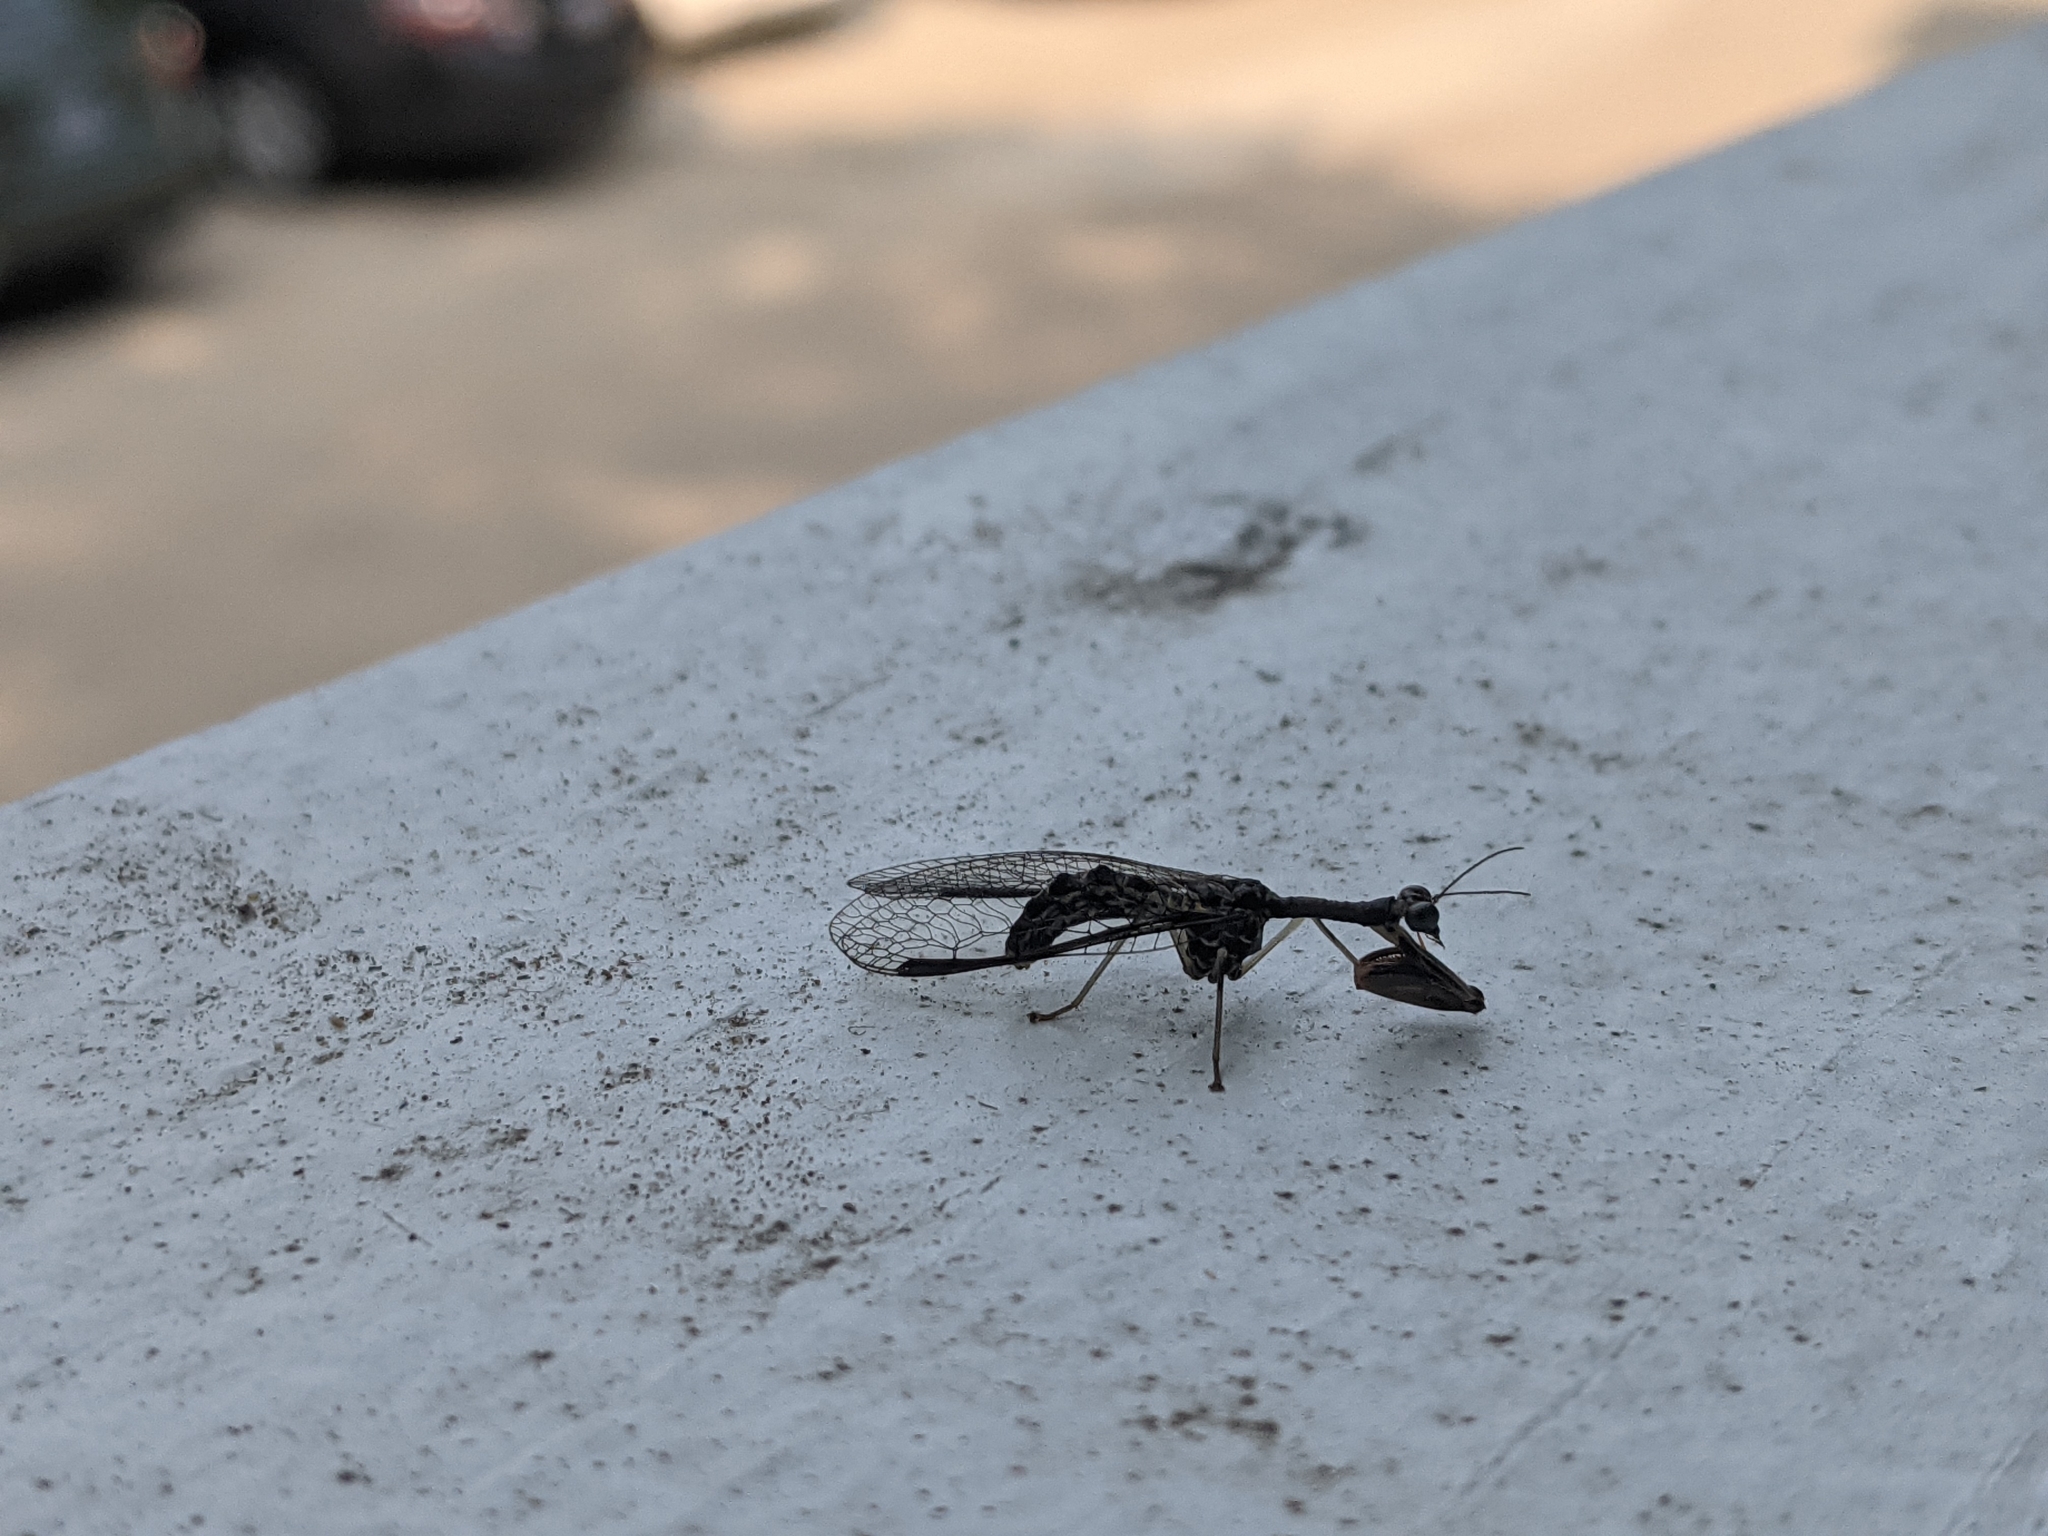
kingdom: Animalia
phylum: Arthropoda
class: Insecta
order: Neuroptera
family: Mantispidae
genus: Dicromantispa
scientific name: Dicromantispa sayi
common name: Say's mantidfly
